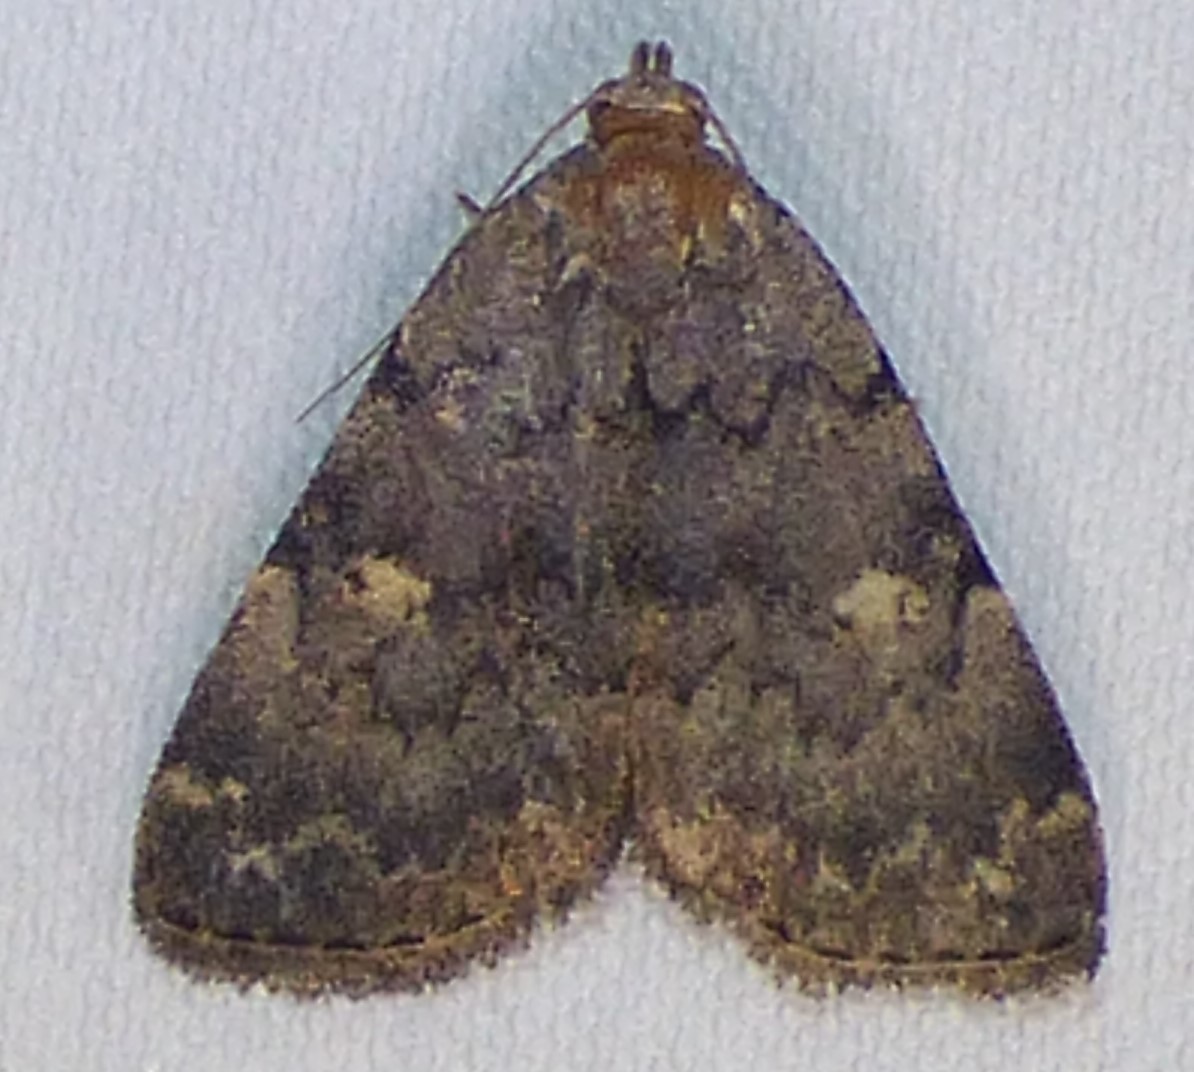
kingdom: Animalia
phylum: Arthropoda
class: Insecta
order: Lepidoptera
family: Erebidae
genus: Idia
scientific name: Idia aemula
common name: Common idia moth
